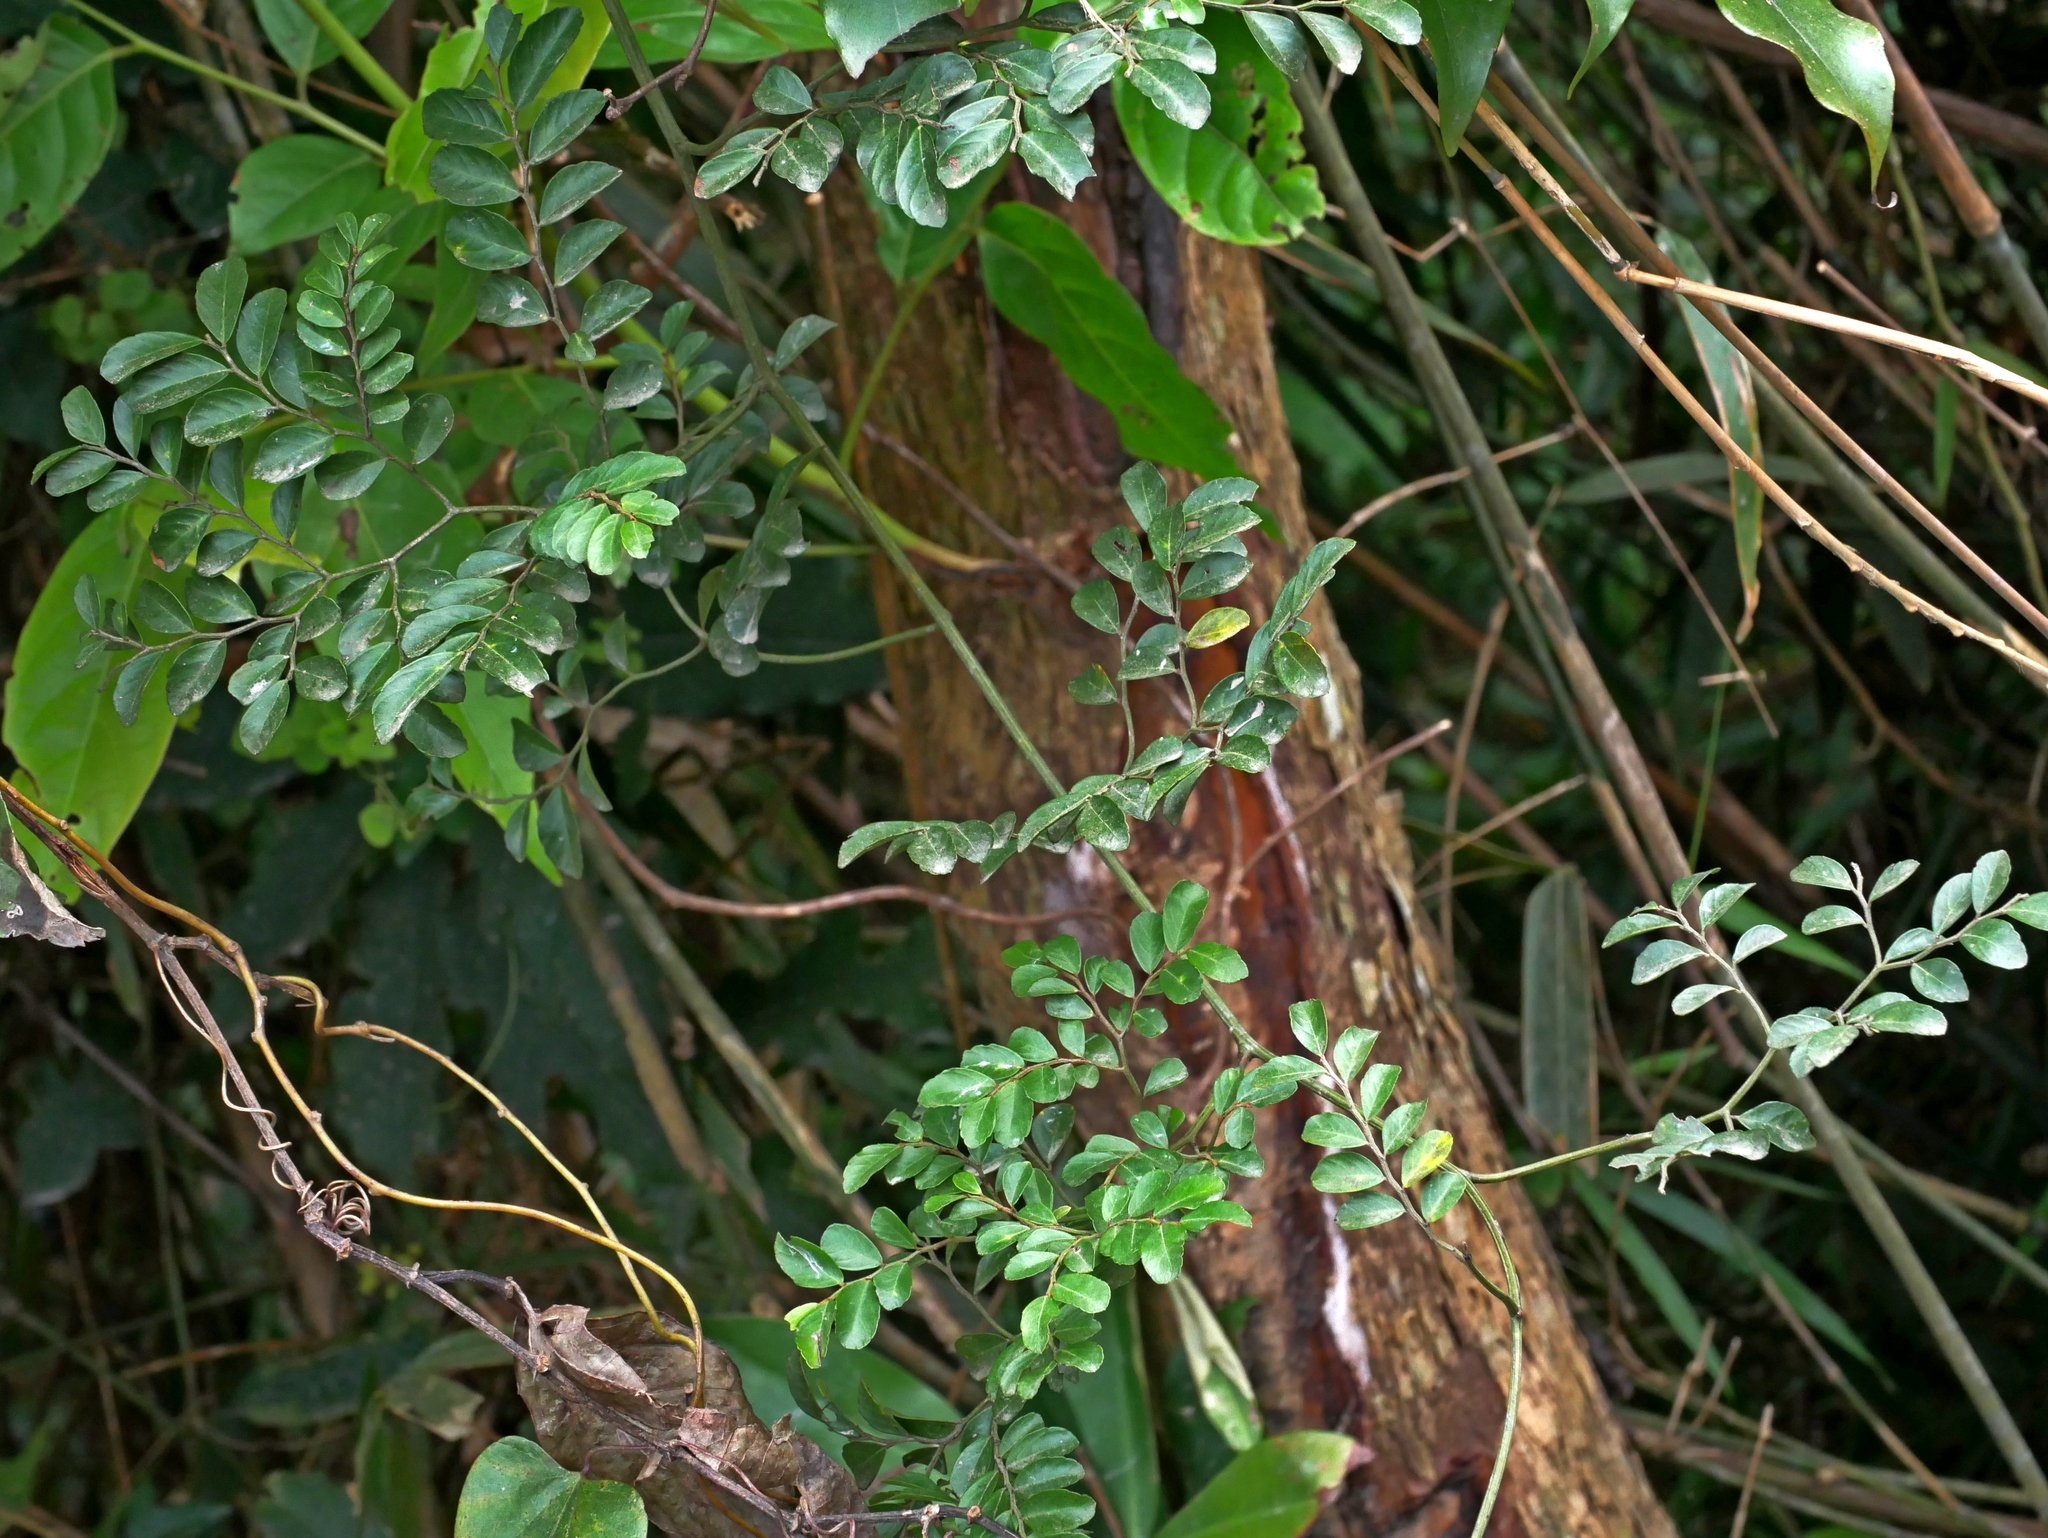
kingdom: Plantae
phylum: Tracheophyta
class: Magnoliopsida
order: Rosales
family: Rhamnaceae
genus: Ventilago
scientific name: Ventilago elegans
